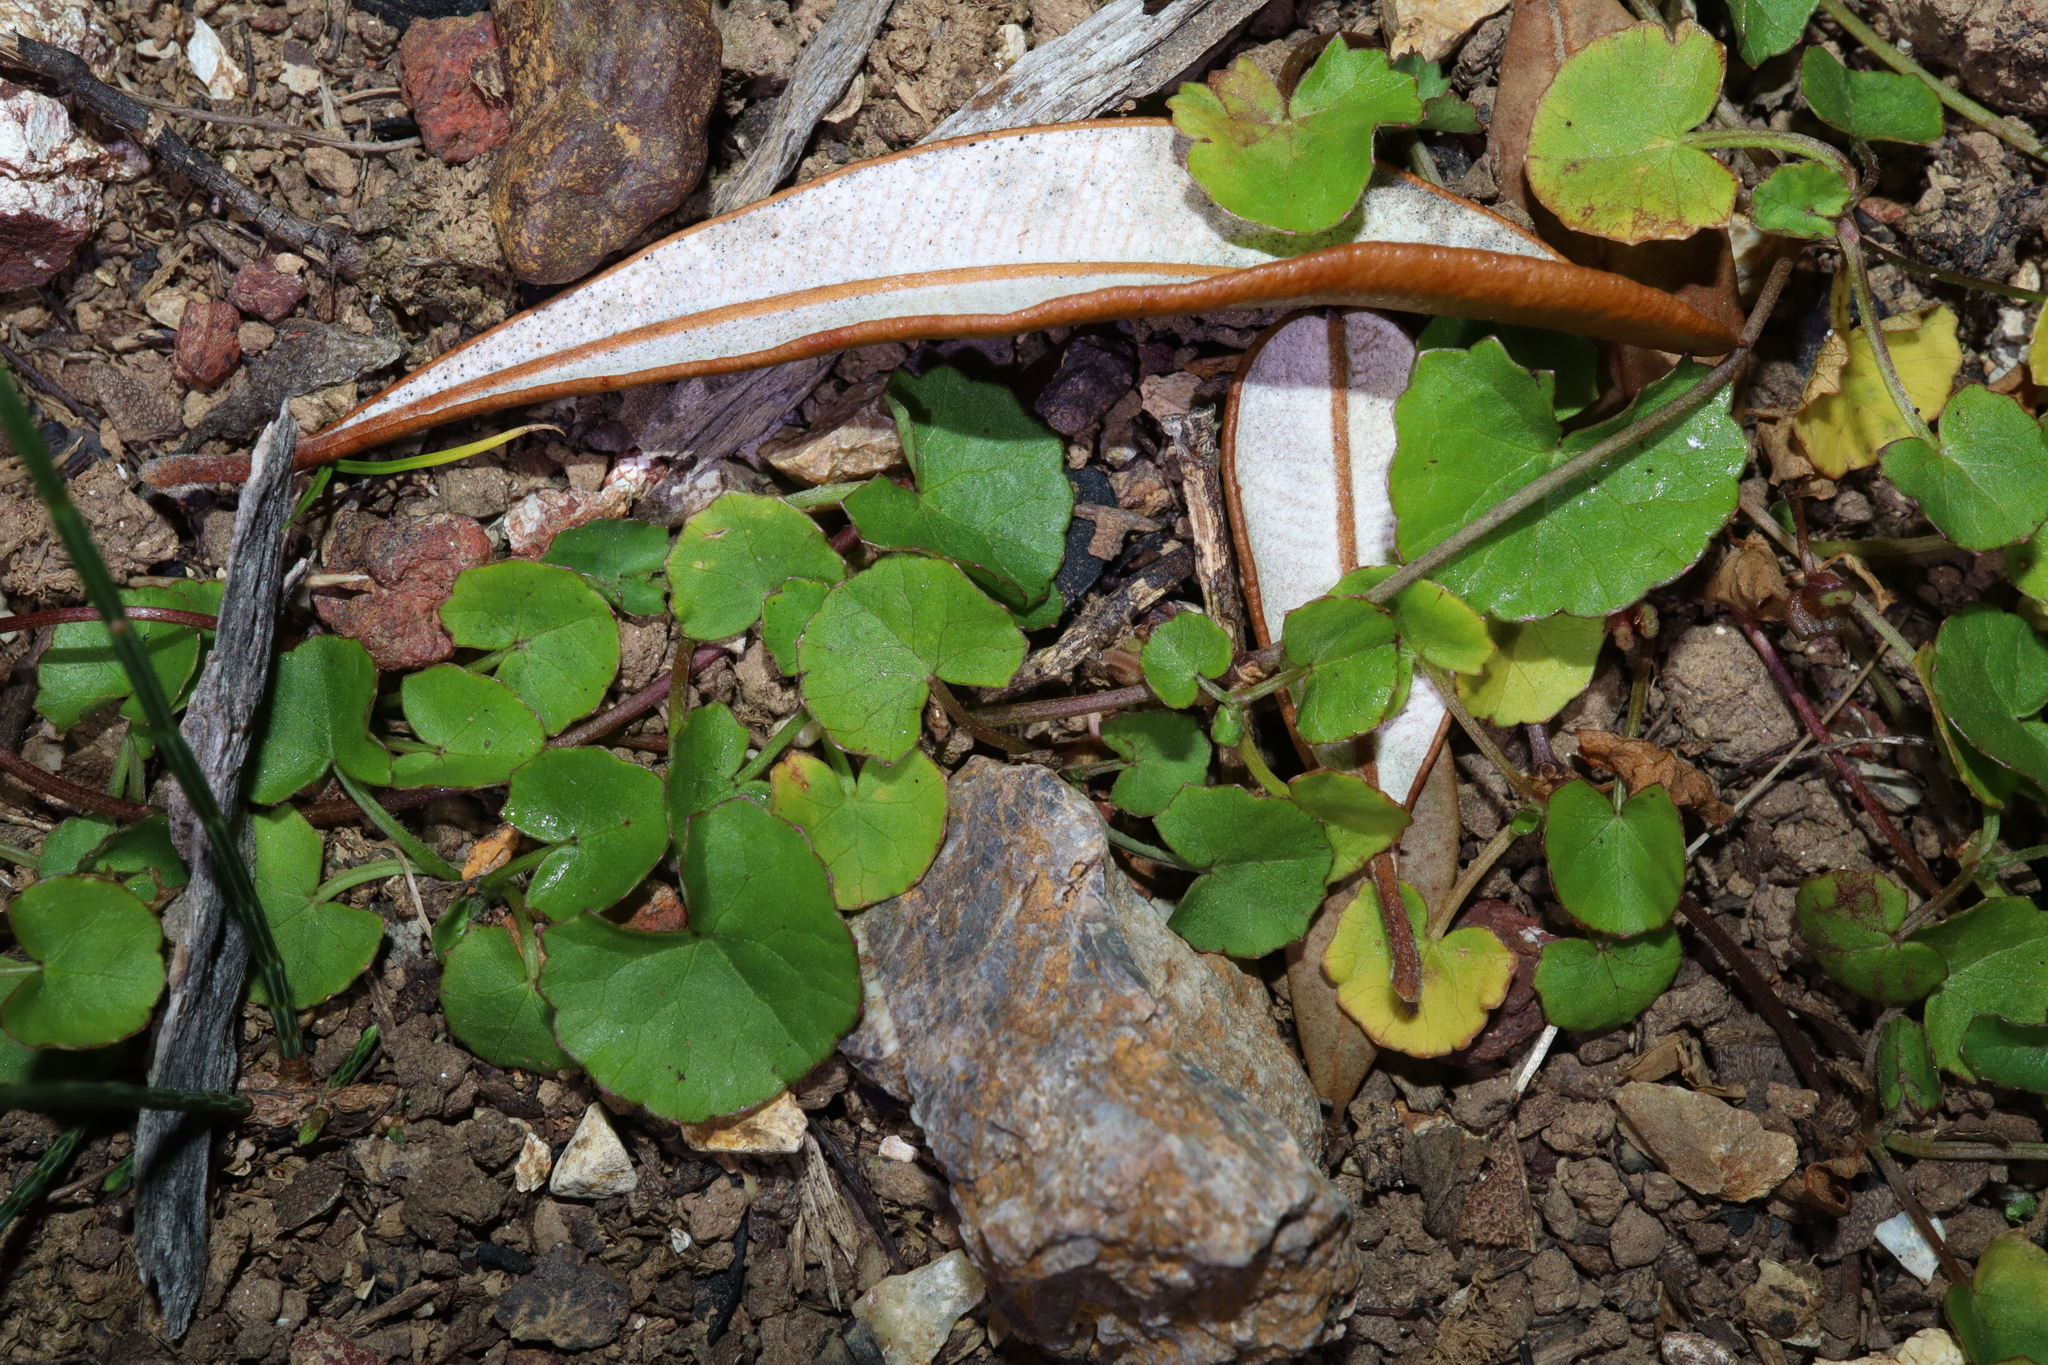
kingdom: Plantae
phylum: Tracheophyta
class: Magnoliopsida
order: Apiales
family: Apiaceae
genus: Centella
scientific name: Centella asiatica
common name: Spadeleaf
